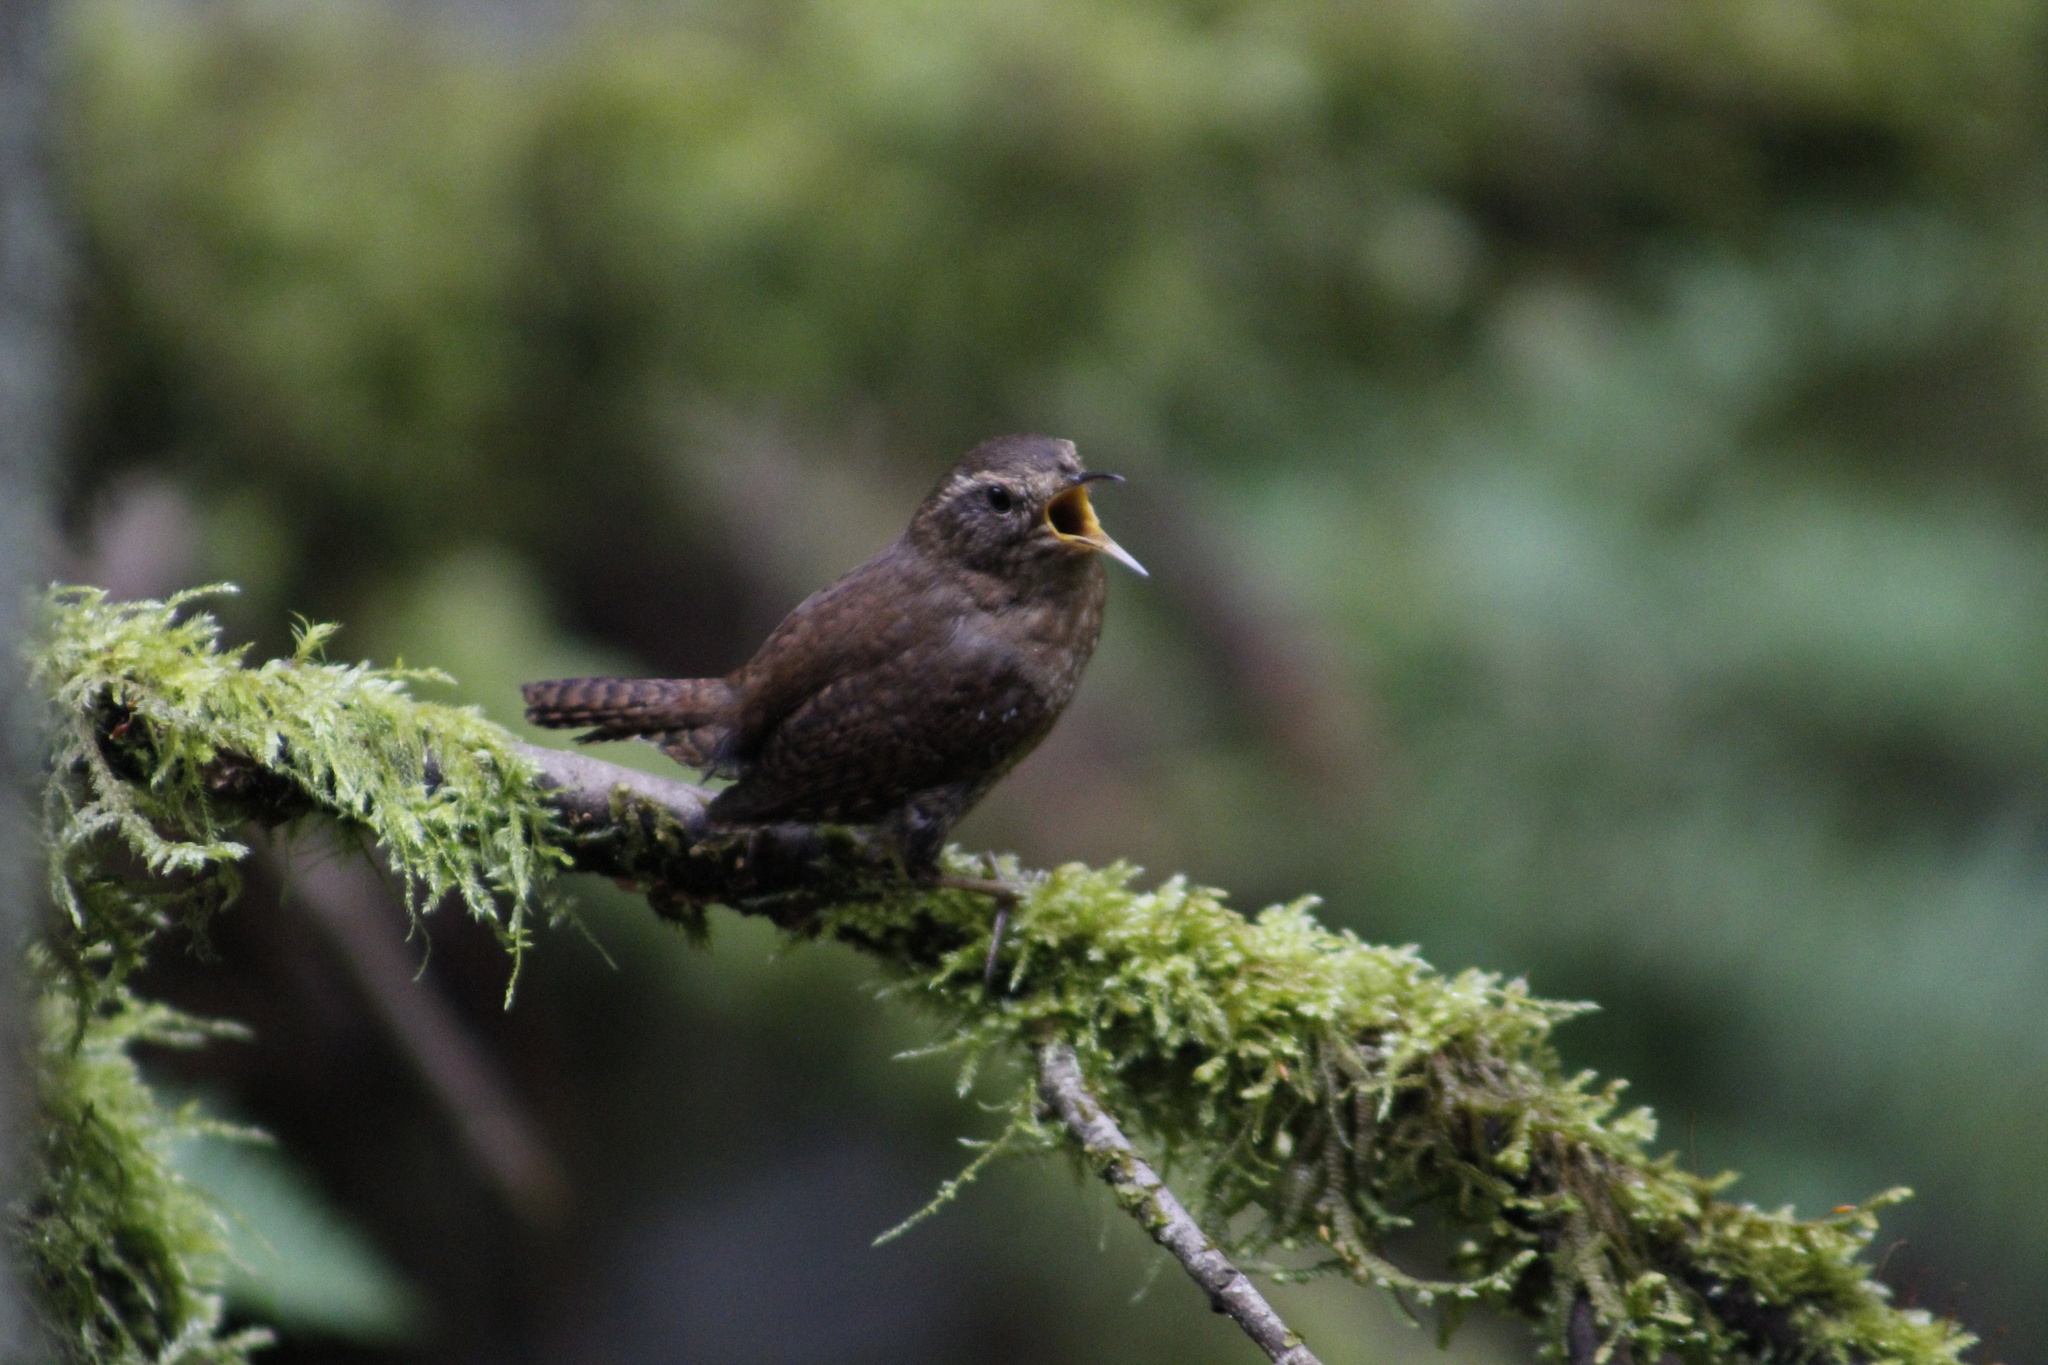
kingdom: Animalia
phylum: Chordata
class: Aves
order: Passeriformes
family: Troglodytidae
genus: Troglodytes
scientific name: Troglodytes pacificus
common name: Pacific wren
